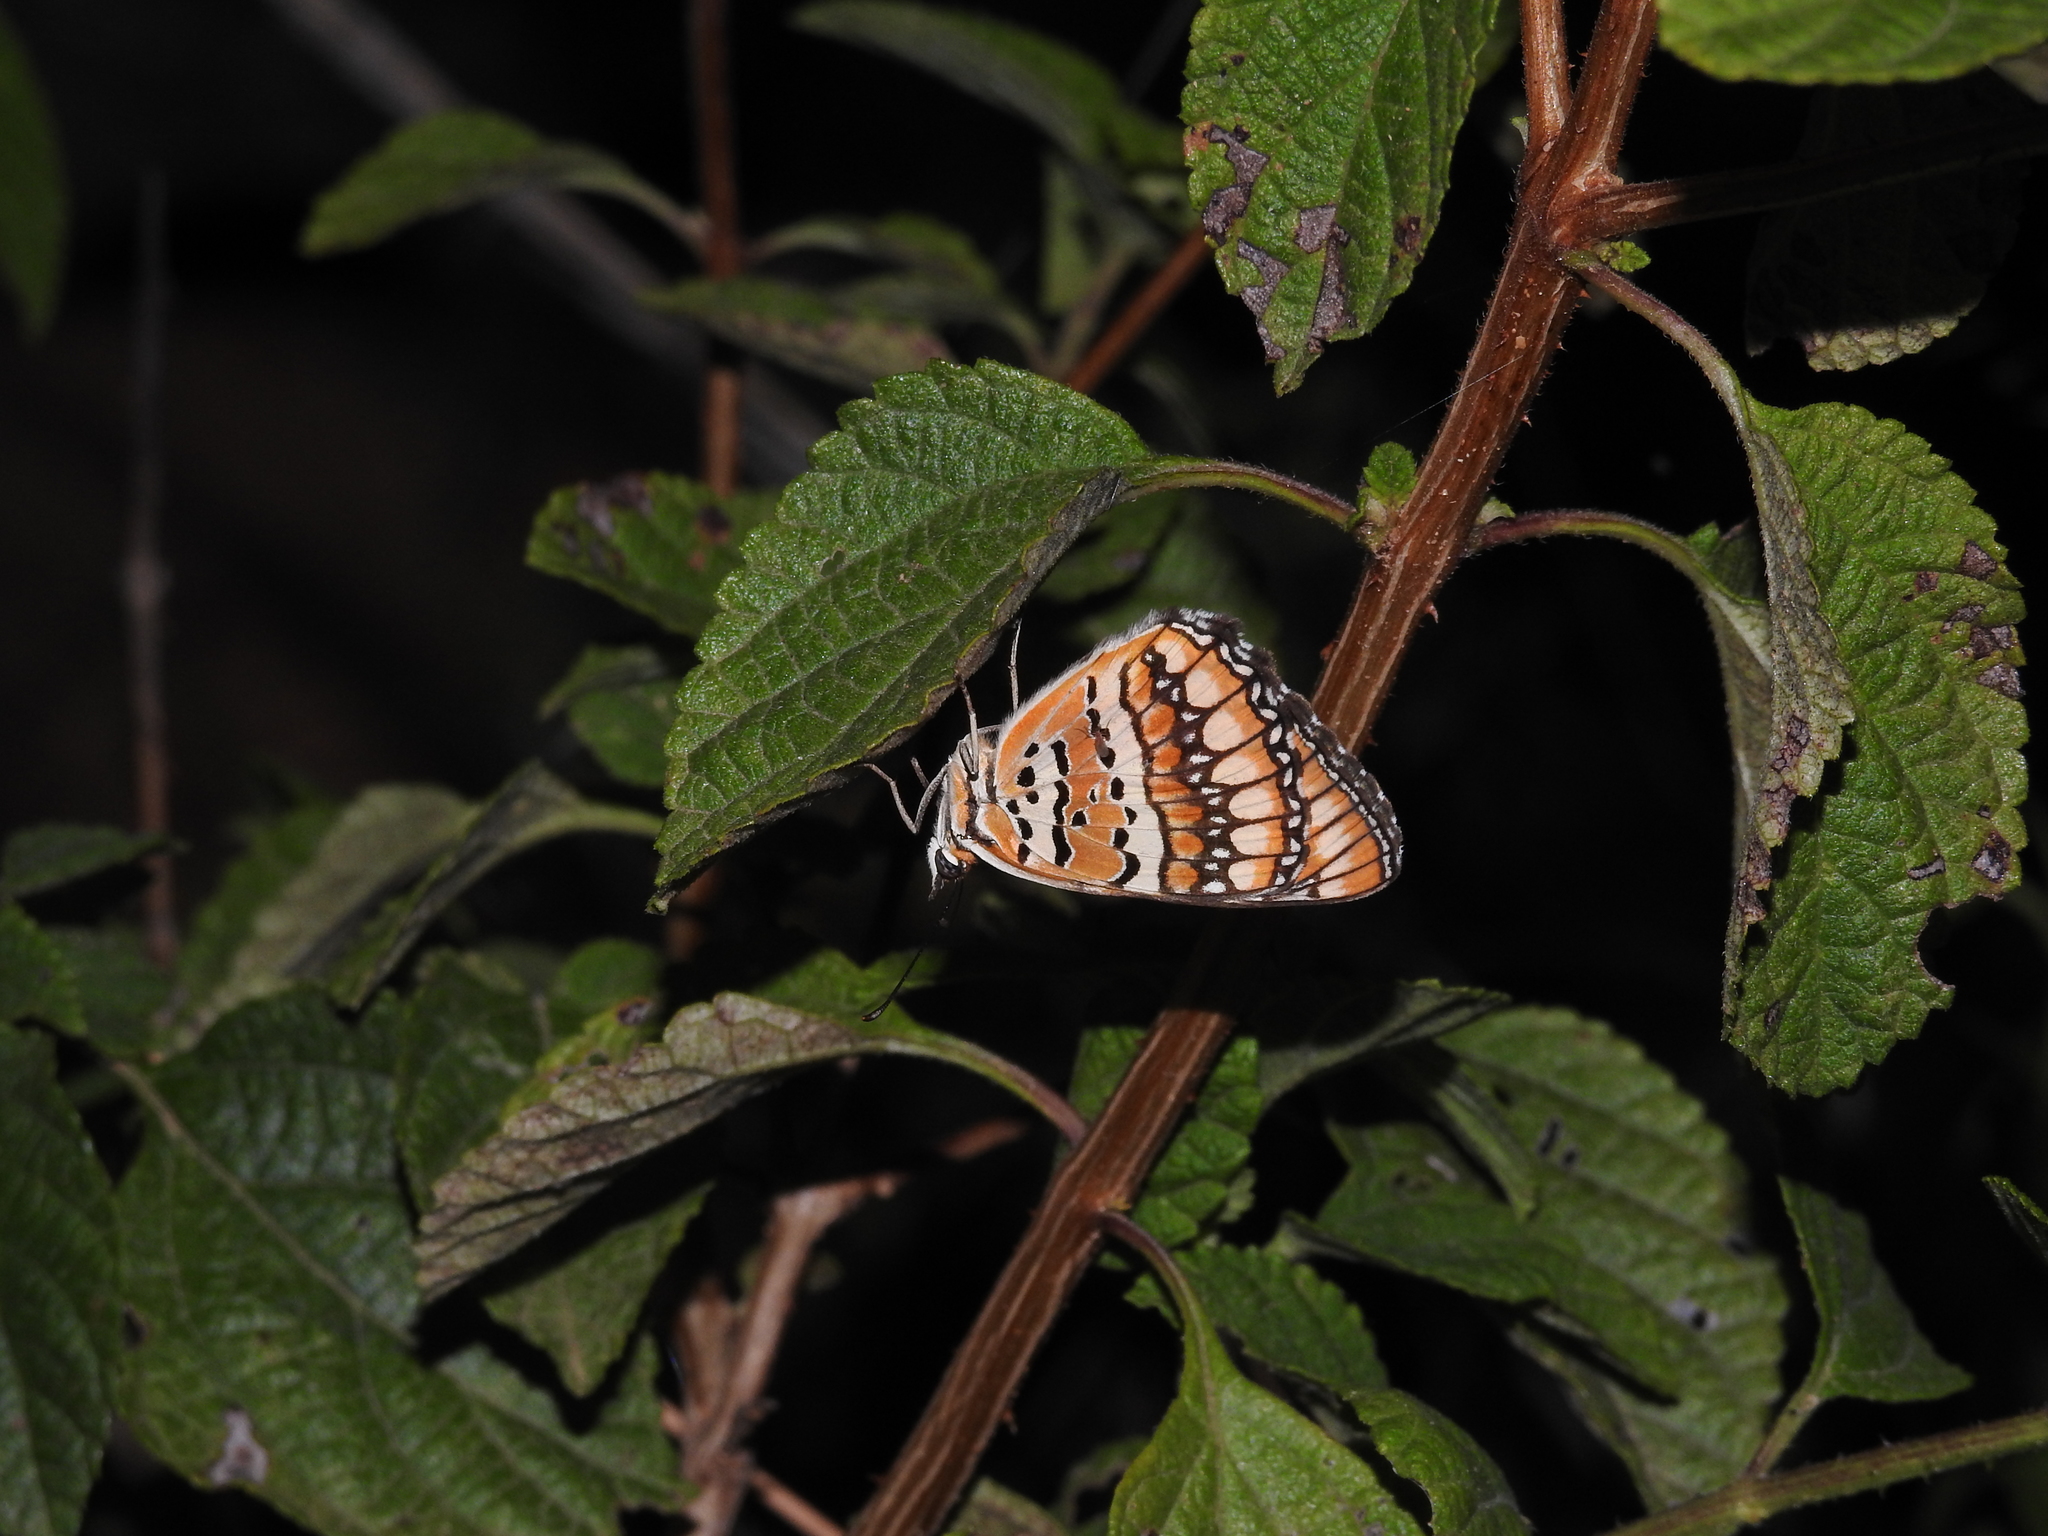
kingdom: Animalia
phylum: Arthropoda
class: Insecta
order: Lepidoptera
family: Nymphalidae
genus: Byblia
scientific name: Byblia ilithyia
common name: Spotted joker
